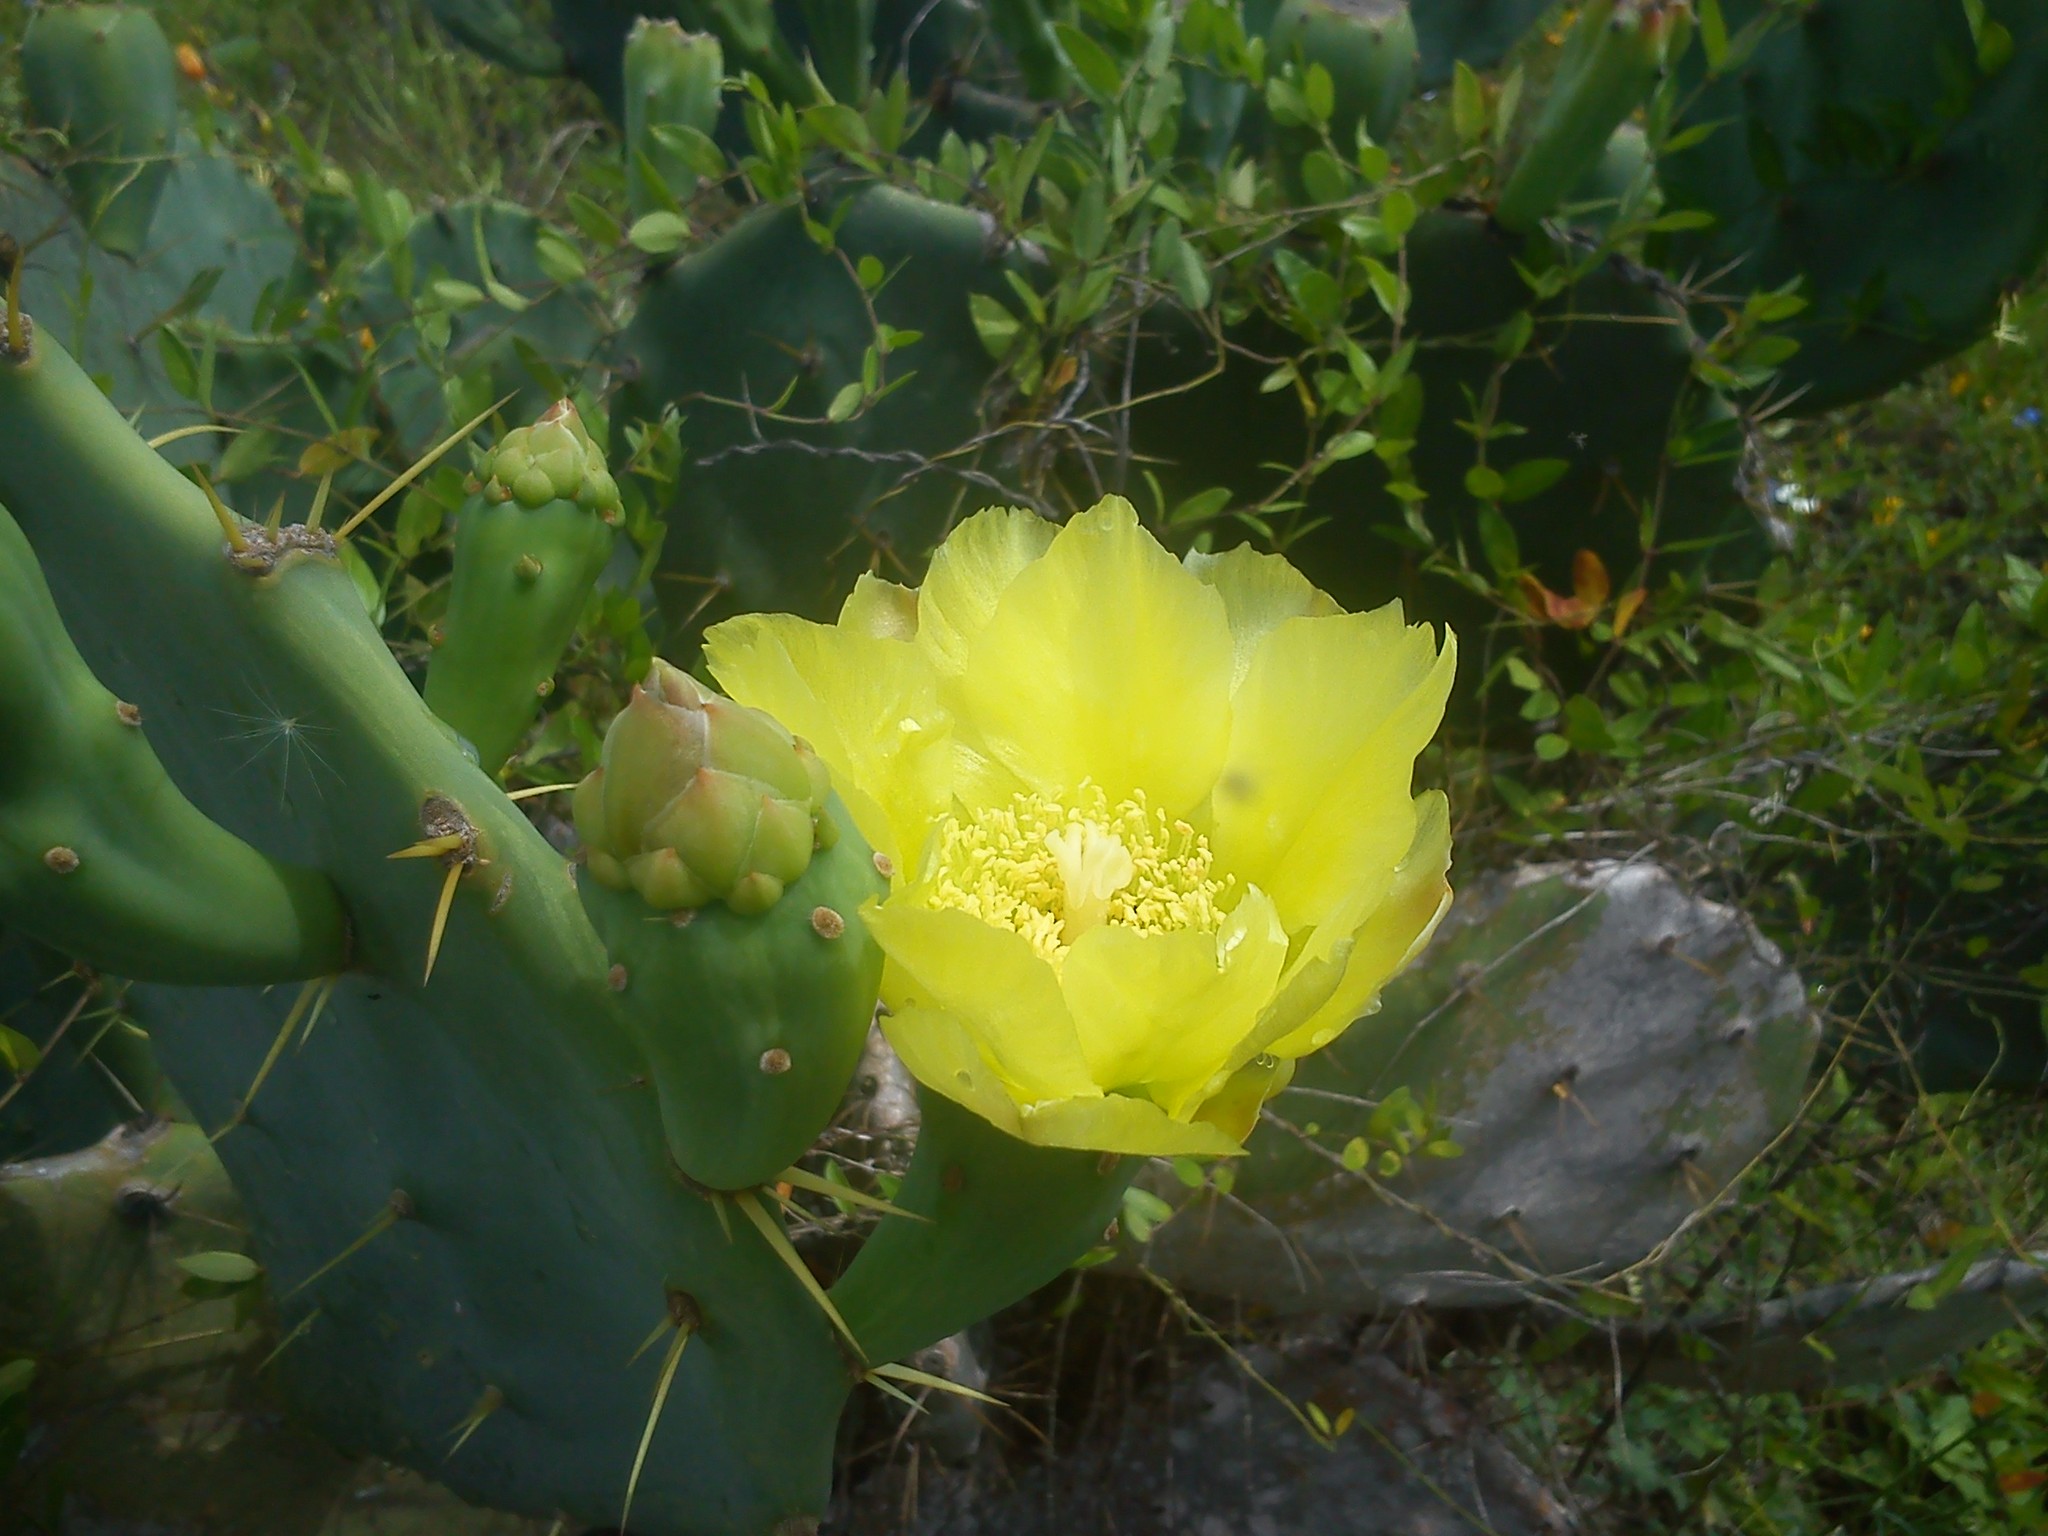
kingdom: Plantae
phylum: Tracheophyta
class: Magnoliopsida
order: Caryophyllales
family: Cactaceae
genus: Opuntia
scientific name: Opuntia stricta
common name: Erect pricklypear
